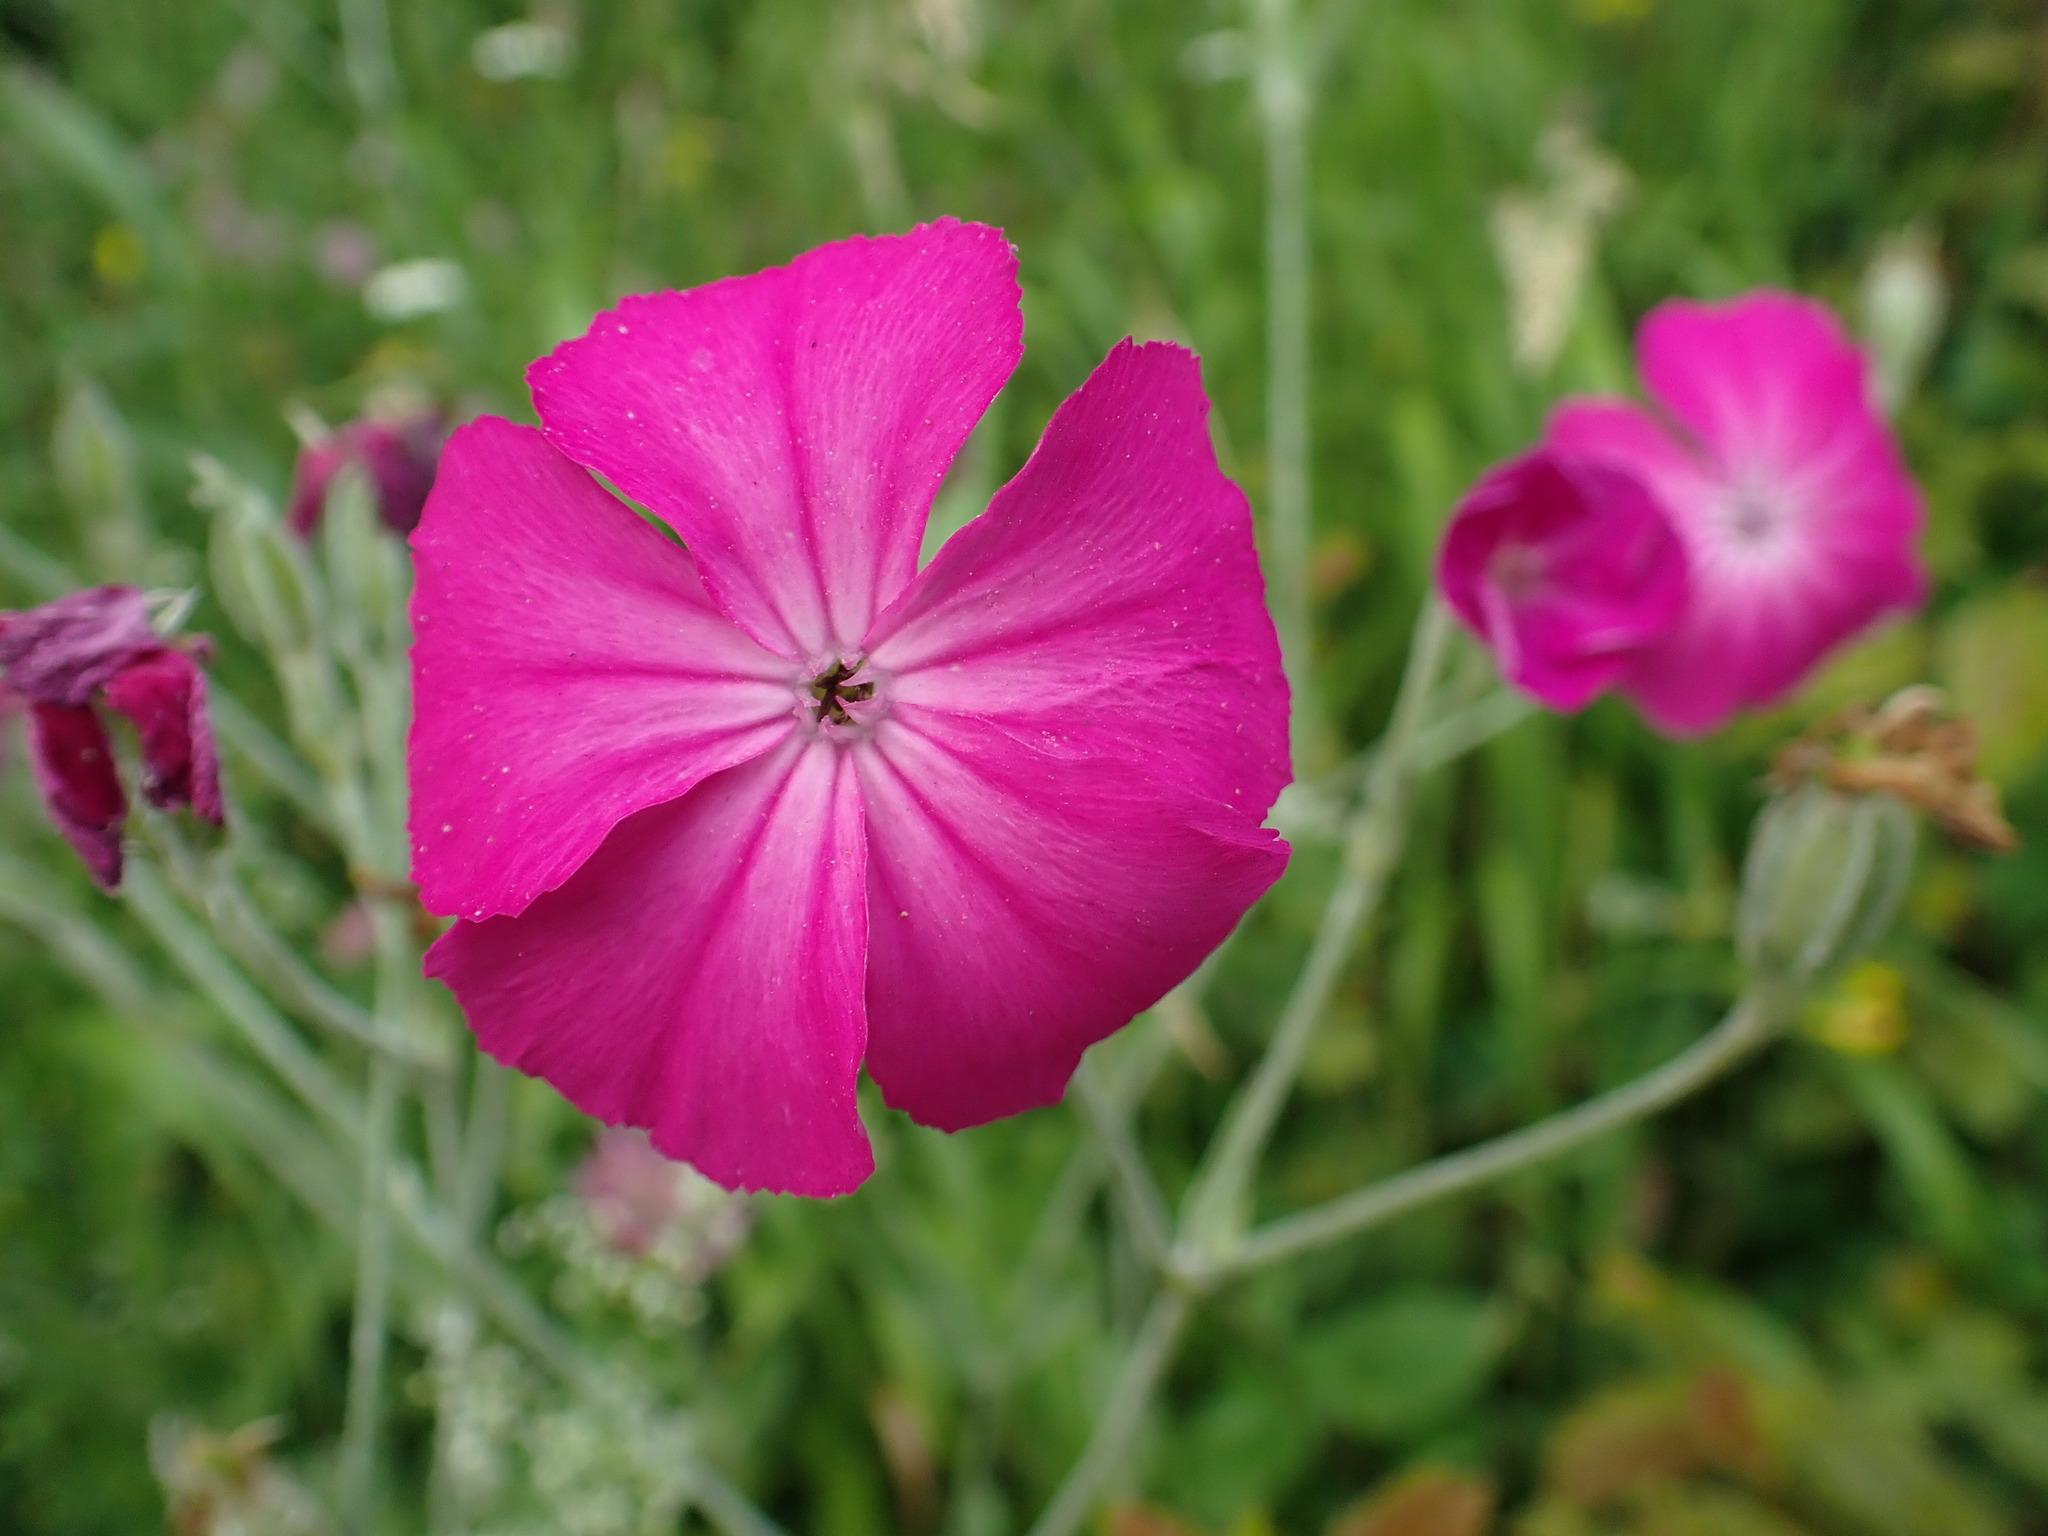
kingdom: Plantae
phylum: Tracheophyta
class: Magnoliopsida
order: Caryophyllales
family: Caryophyllaceae
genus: Silene
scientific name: Silene coronaria
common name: Rose campion
